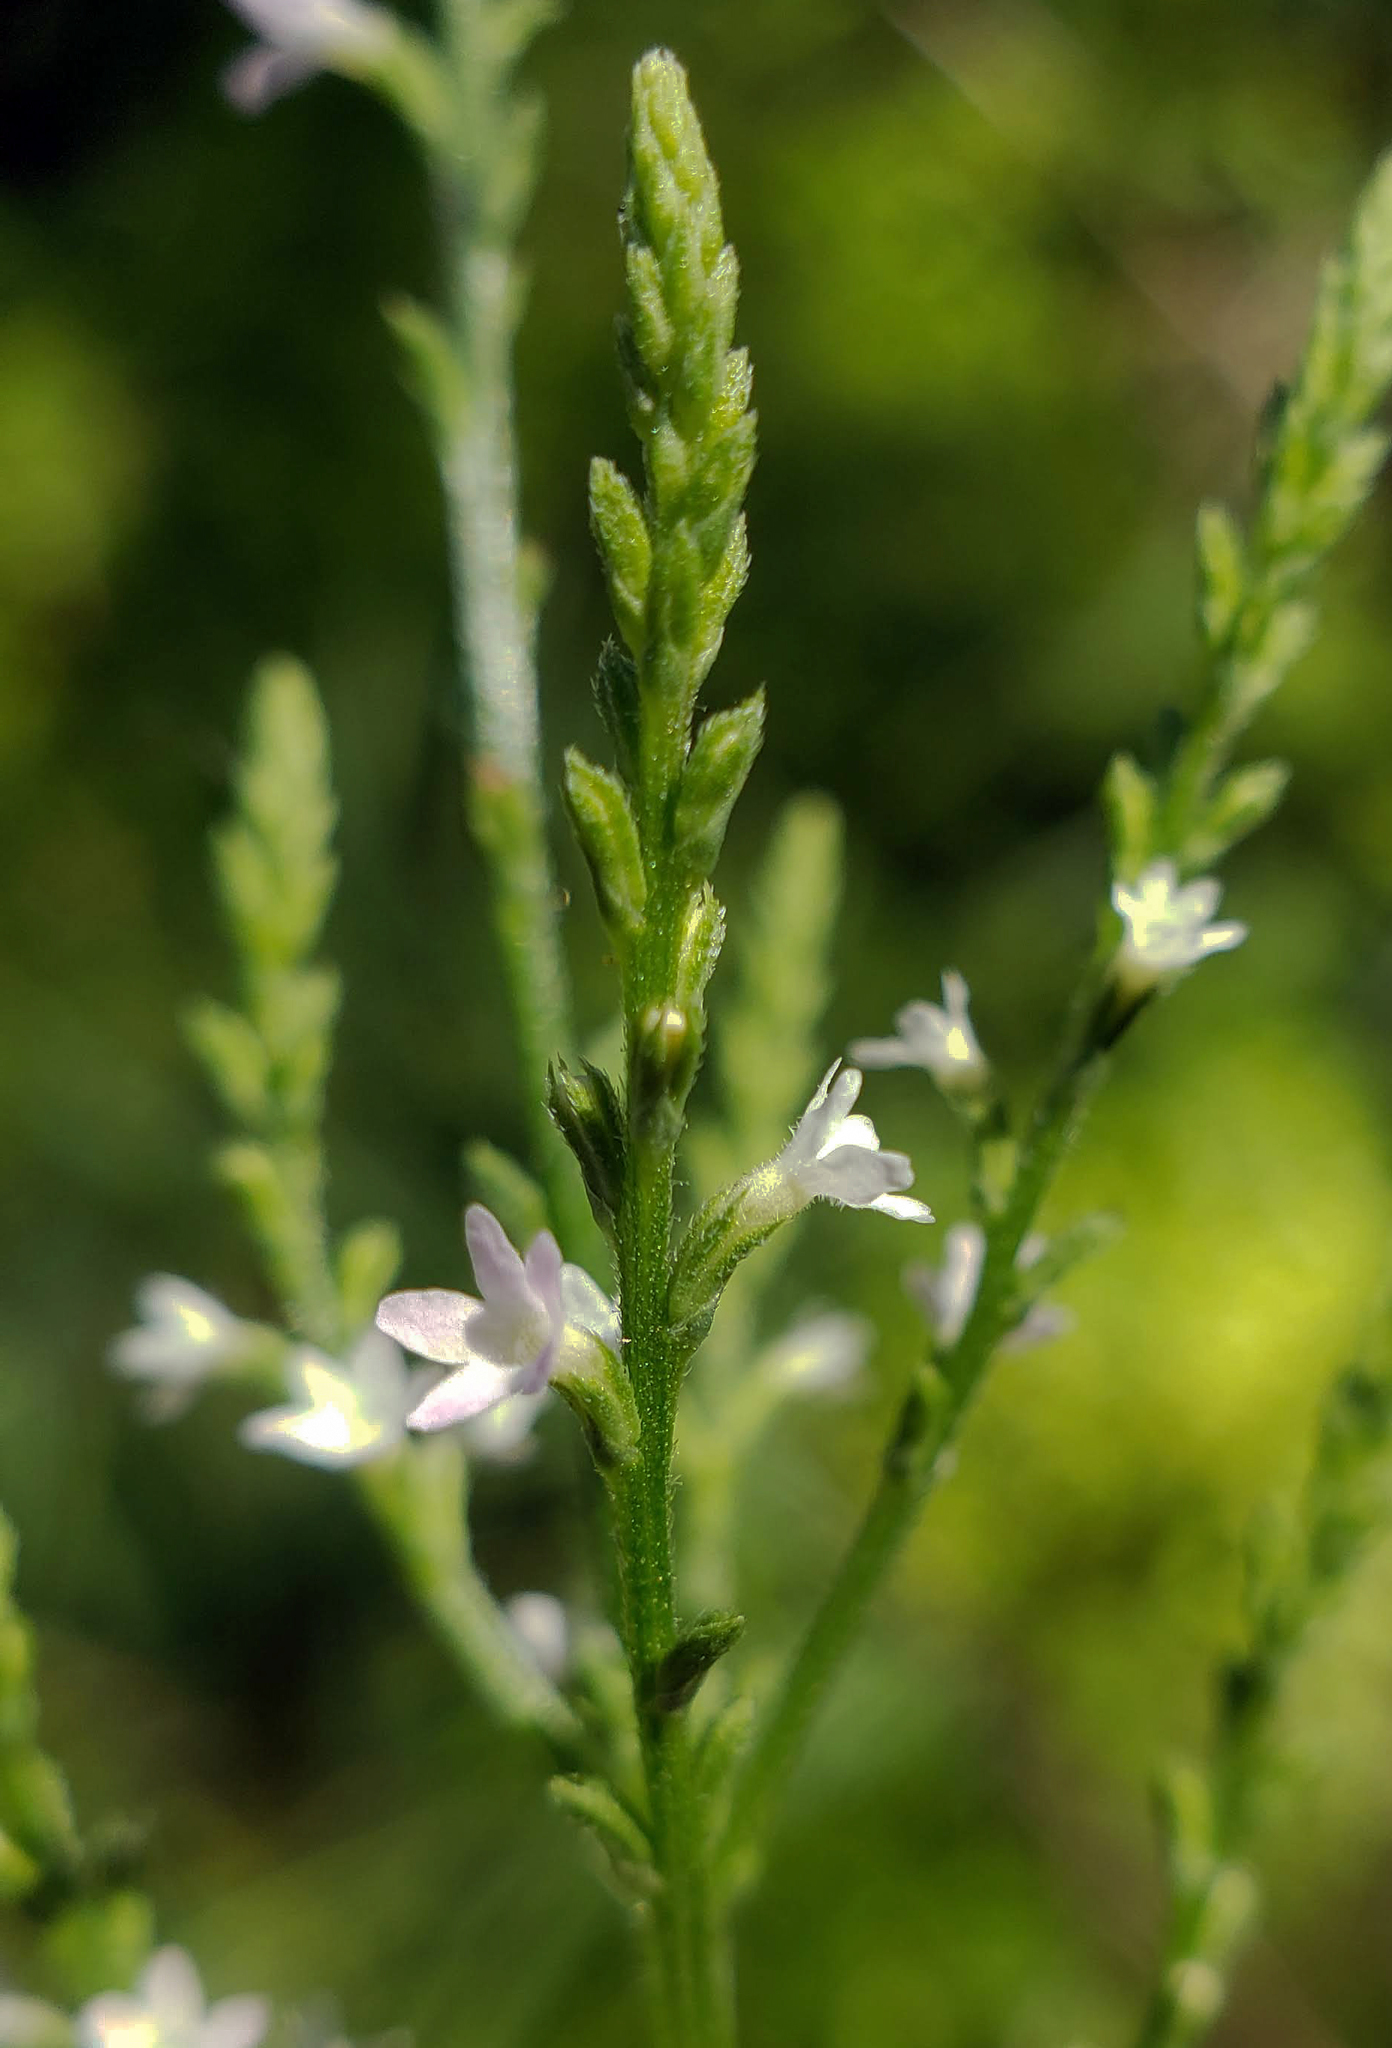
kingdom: Plantae
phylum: Tracheophyta
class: Magnoliopsida
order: Lamiales
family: Verbenaceae
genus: Verbena
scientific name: Verbena urticifolia
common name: Nettle-leaved vervain
